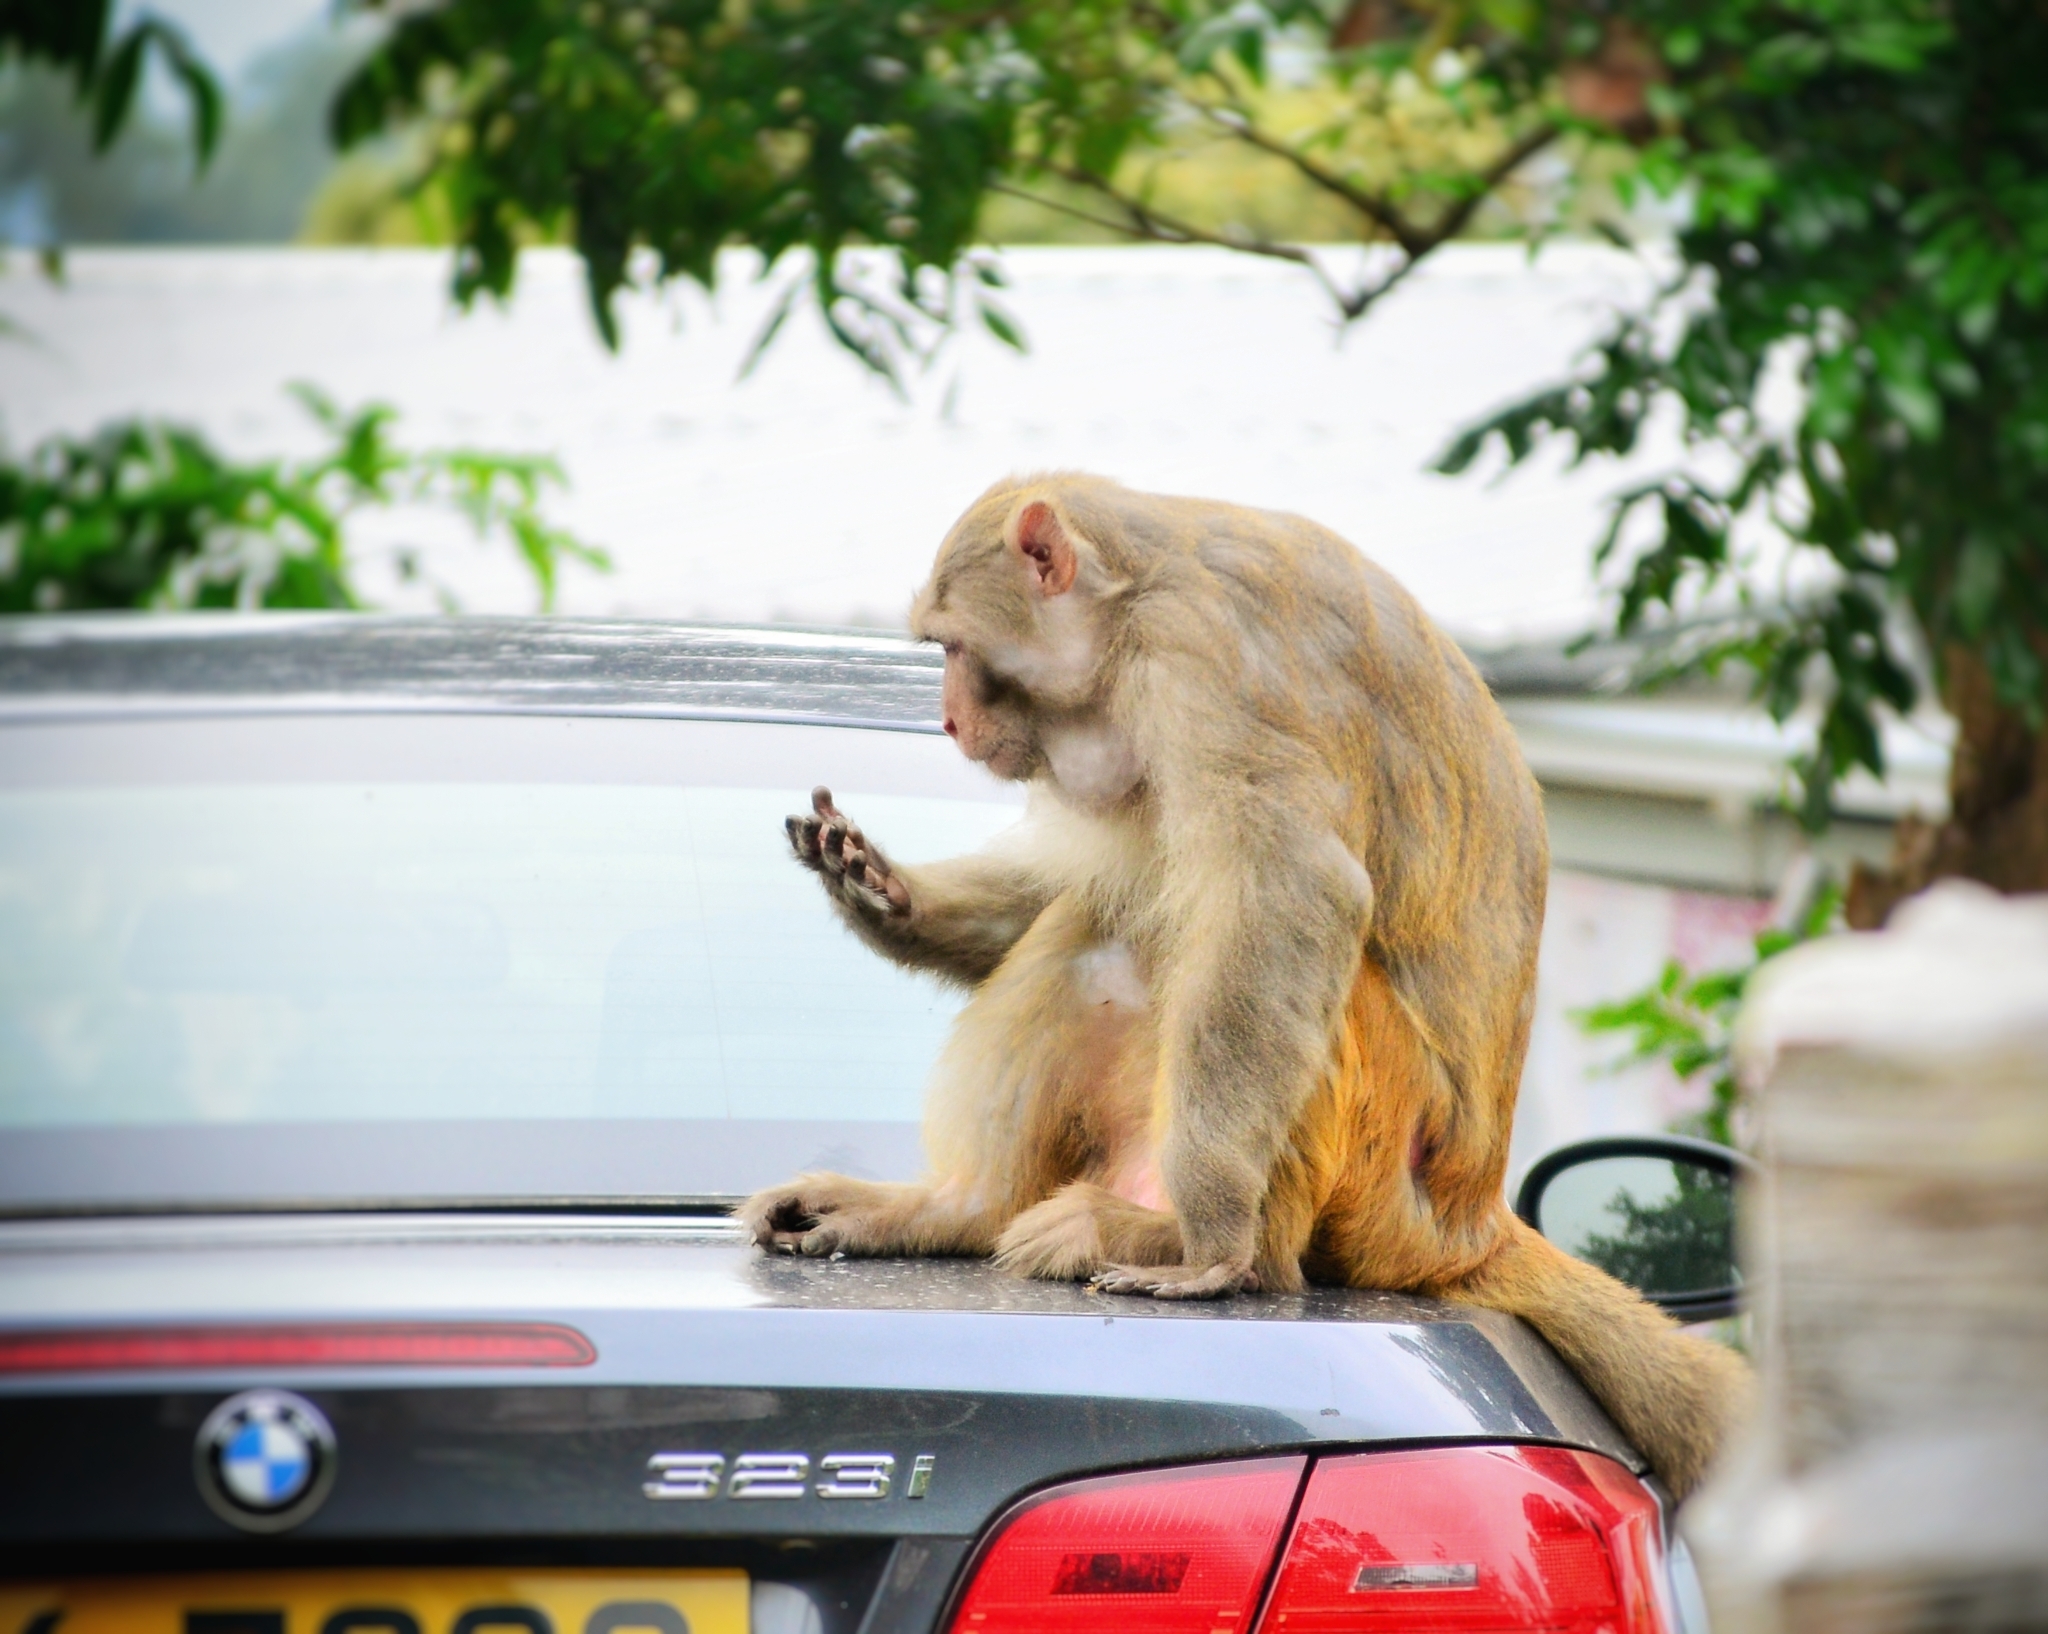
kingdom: Animalia
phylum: Chordata
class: Mammalia
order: Primates
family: Cercopithecidae
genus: Macaca
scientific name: Macaca mulatta
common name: Rhesus monkey
